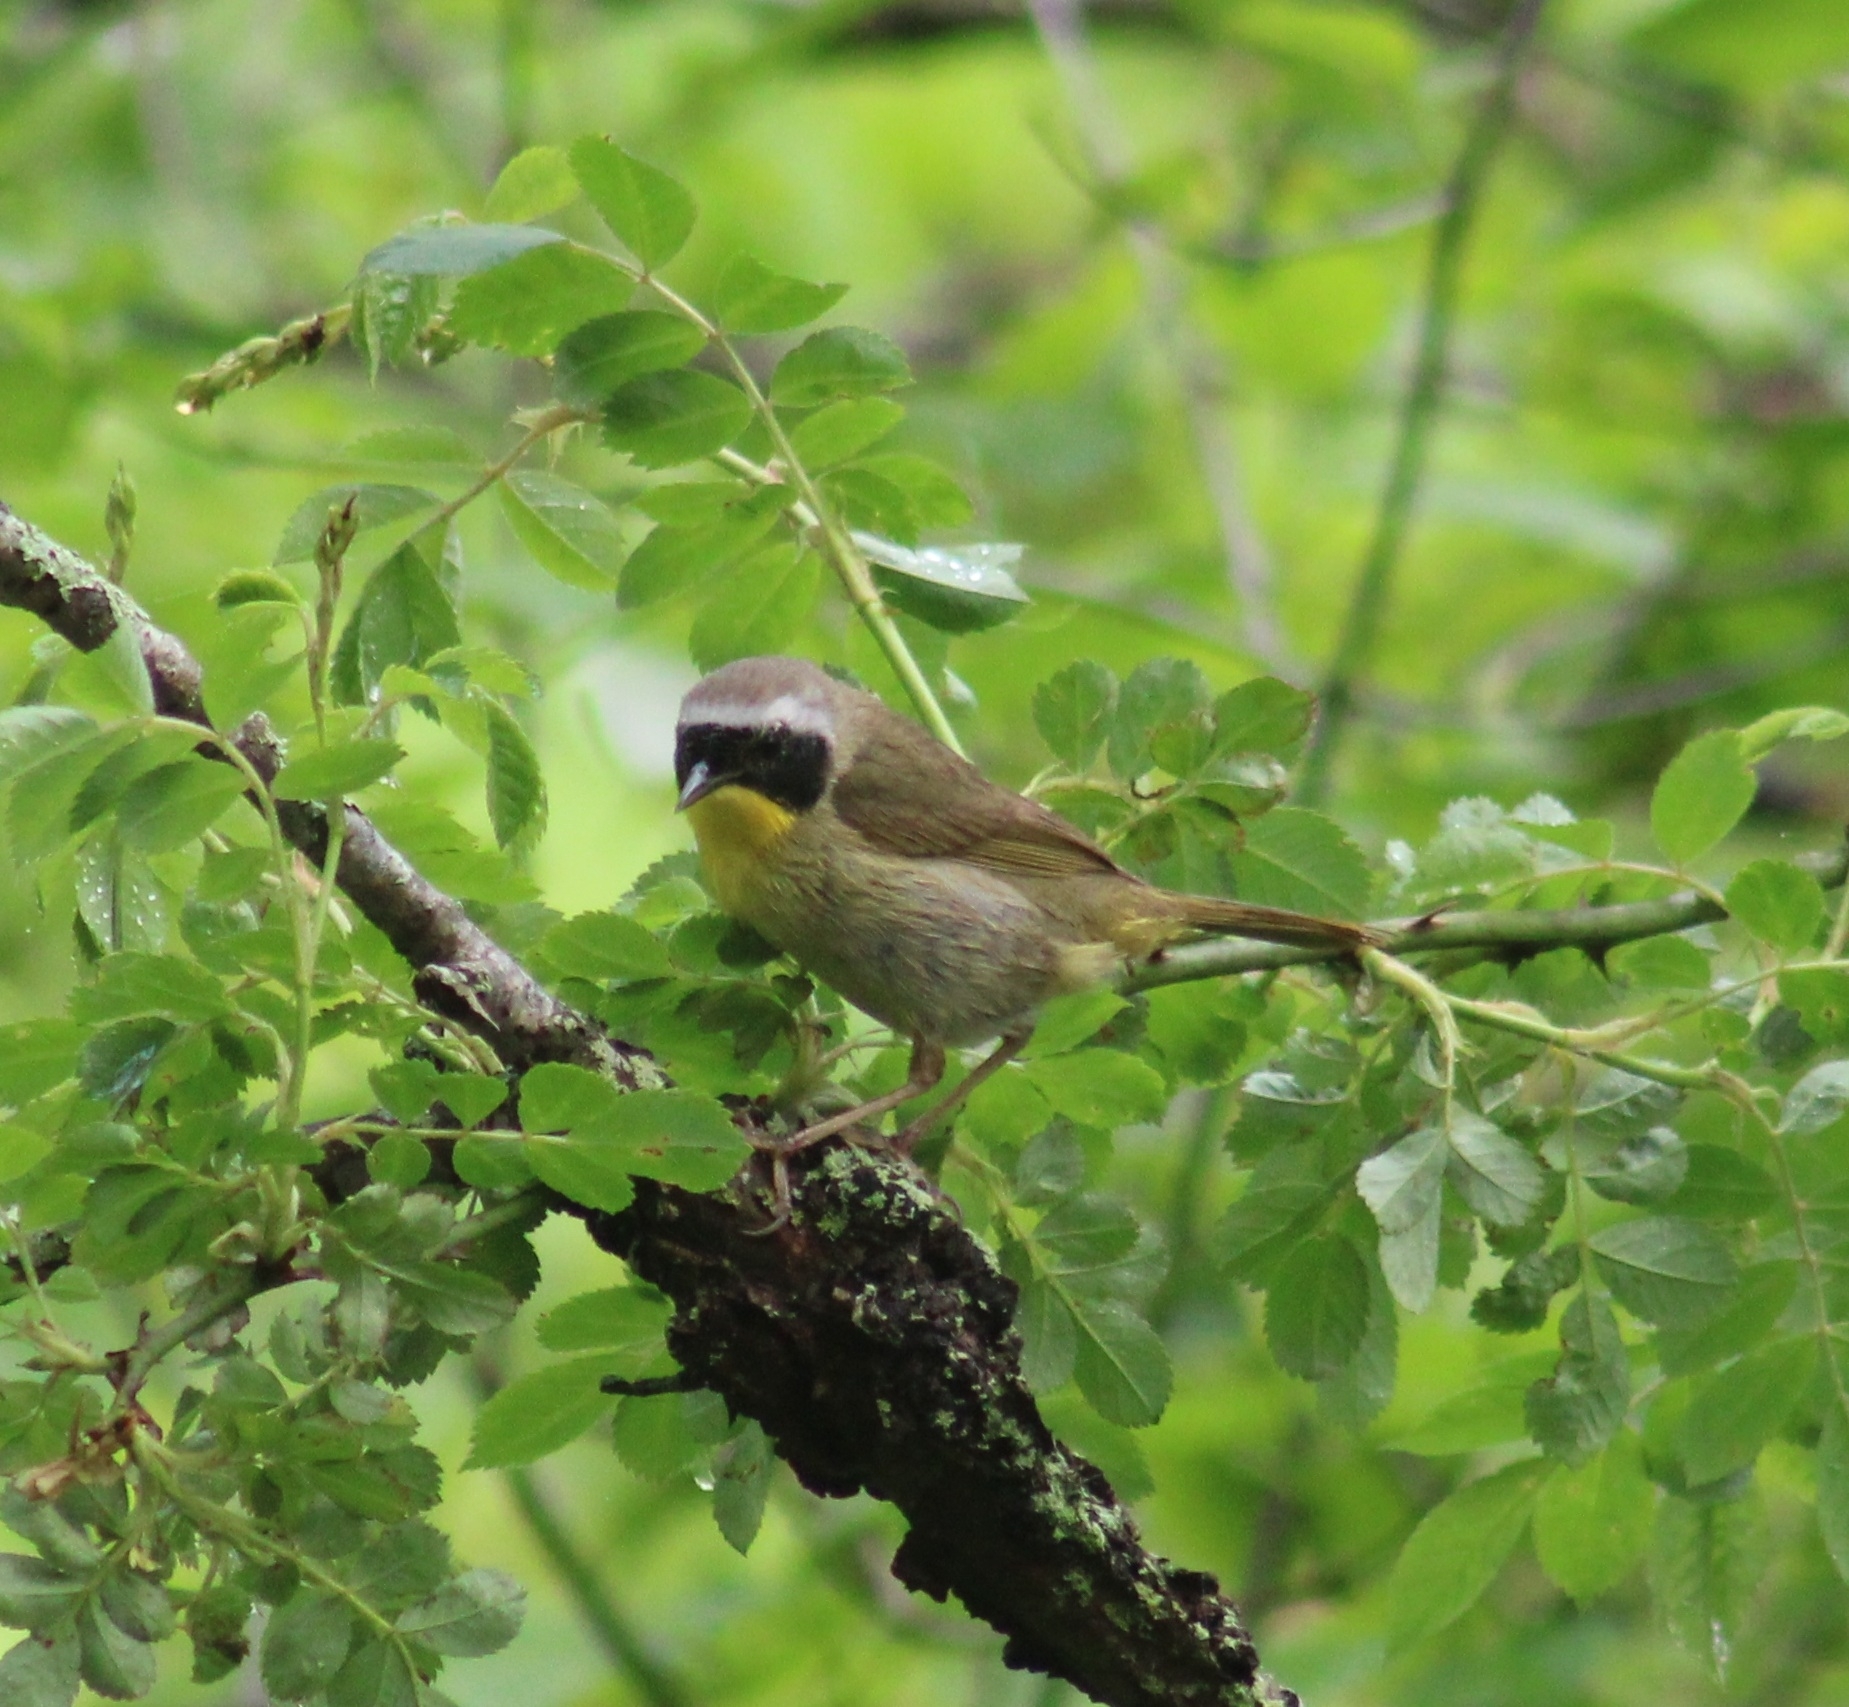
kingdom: Animalia
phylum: Chordata
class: Aves
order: Passeriformes
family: Parulidae
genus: Geothlypis
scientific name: Geothlypis trichas
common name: Common yellowthroat
